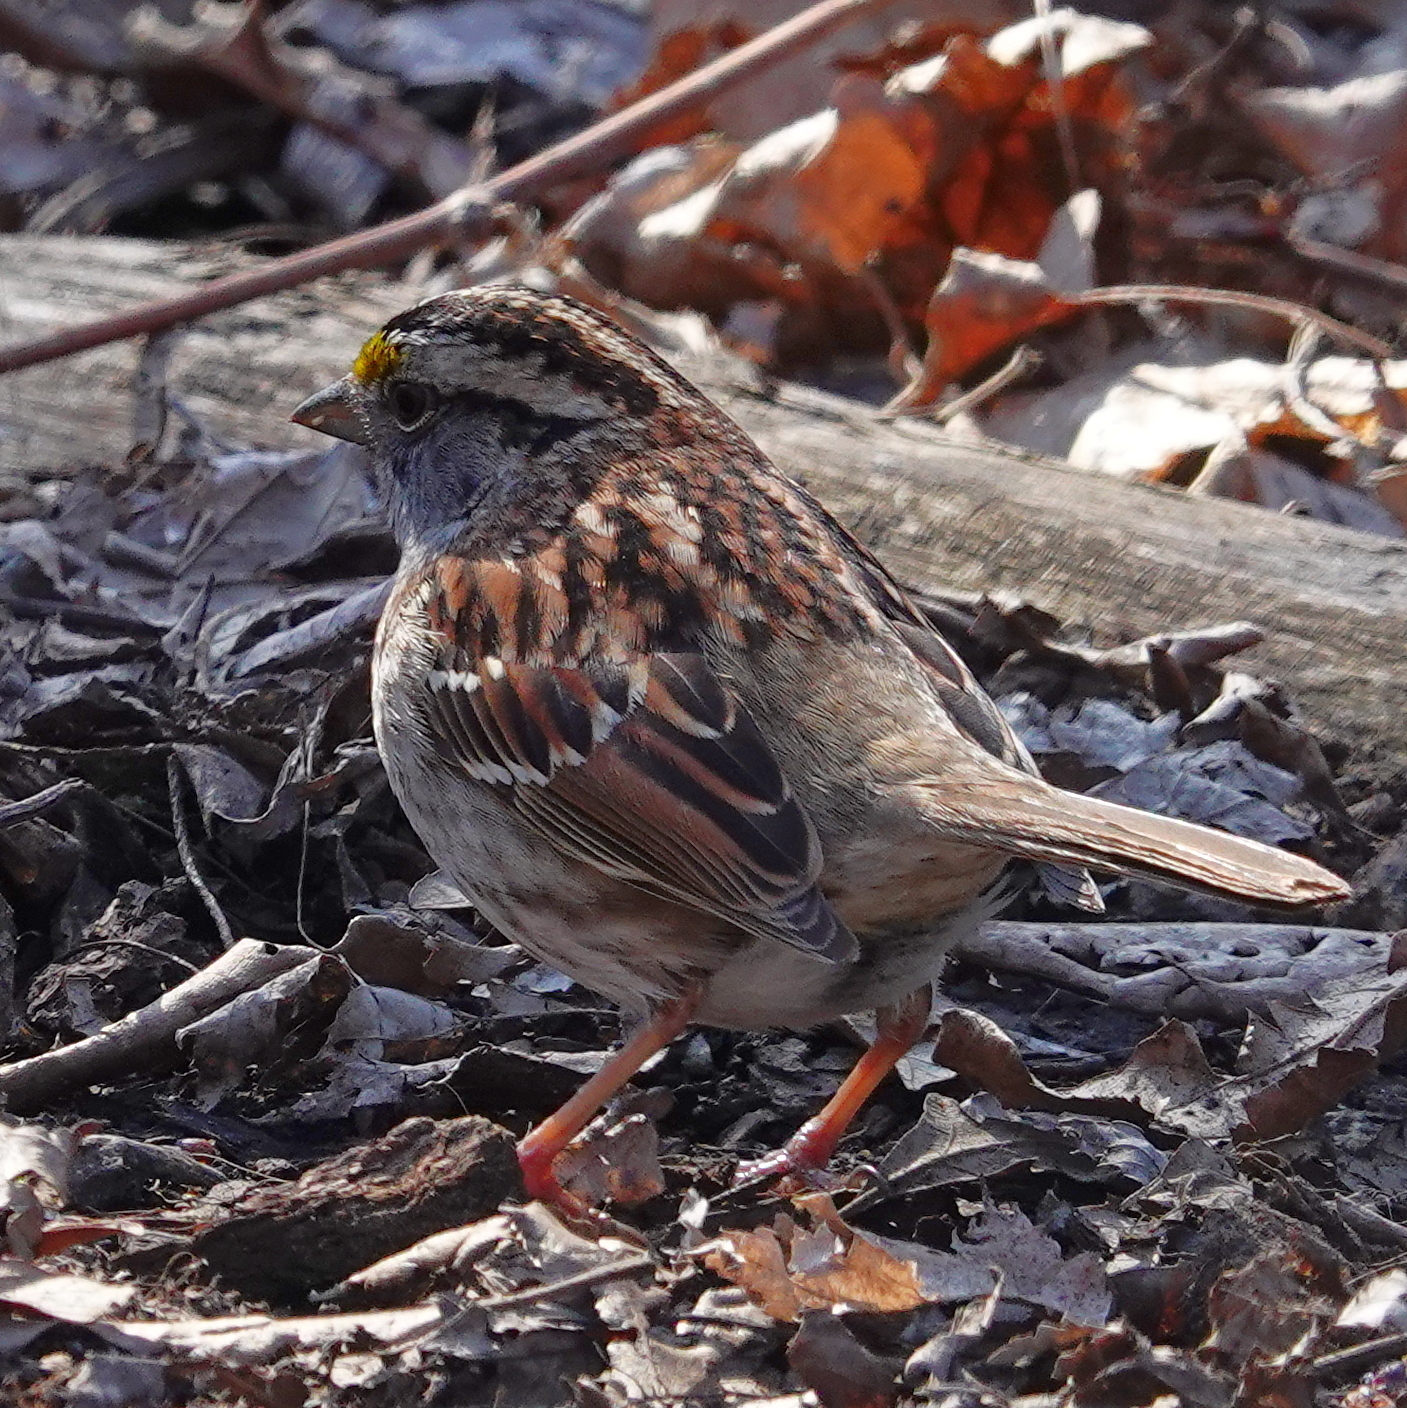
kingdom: Animalia
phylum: Chordata
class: Aves
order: Passeriformes
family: Passerellidae
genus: Zonotrichia
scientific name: Zonotrichia albicollis
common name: White-throated sparrow
